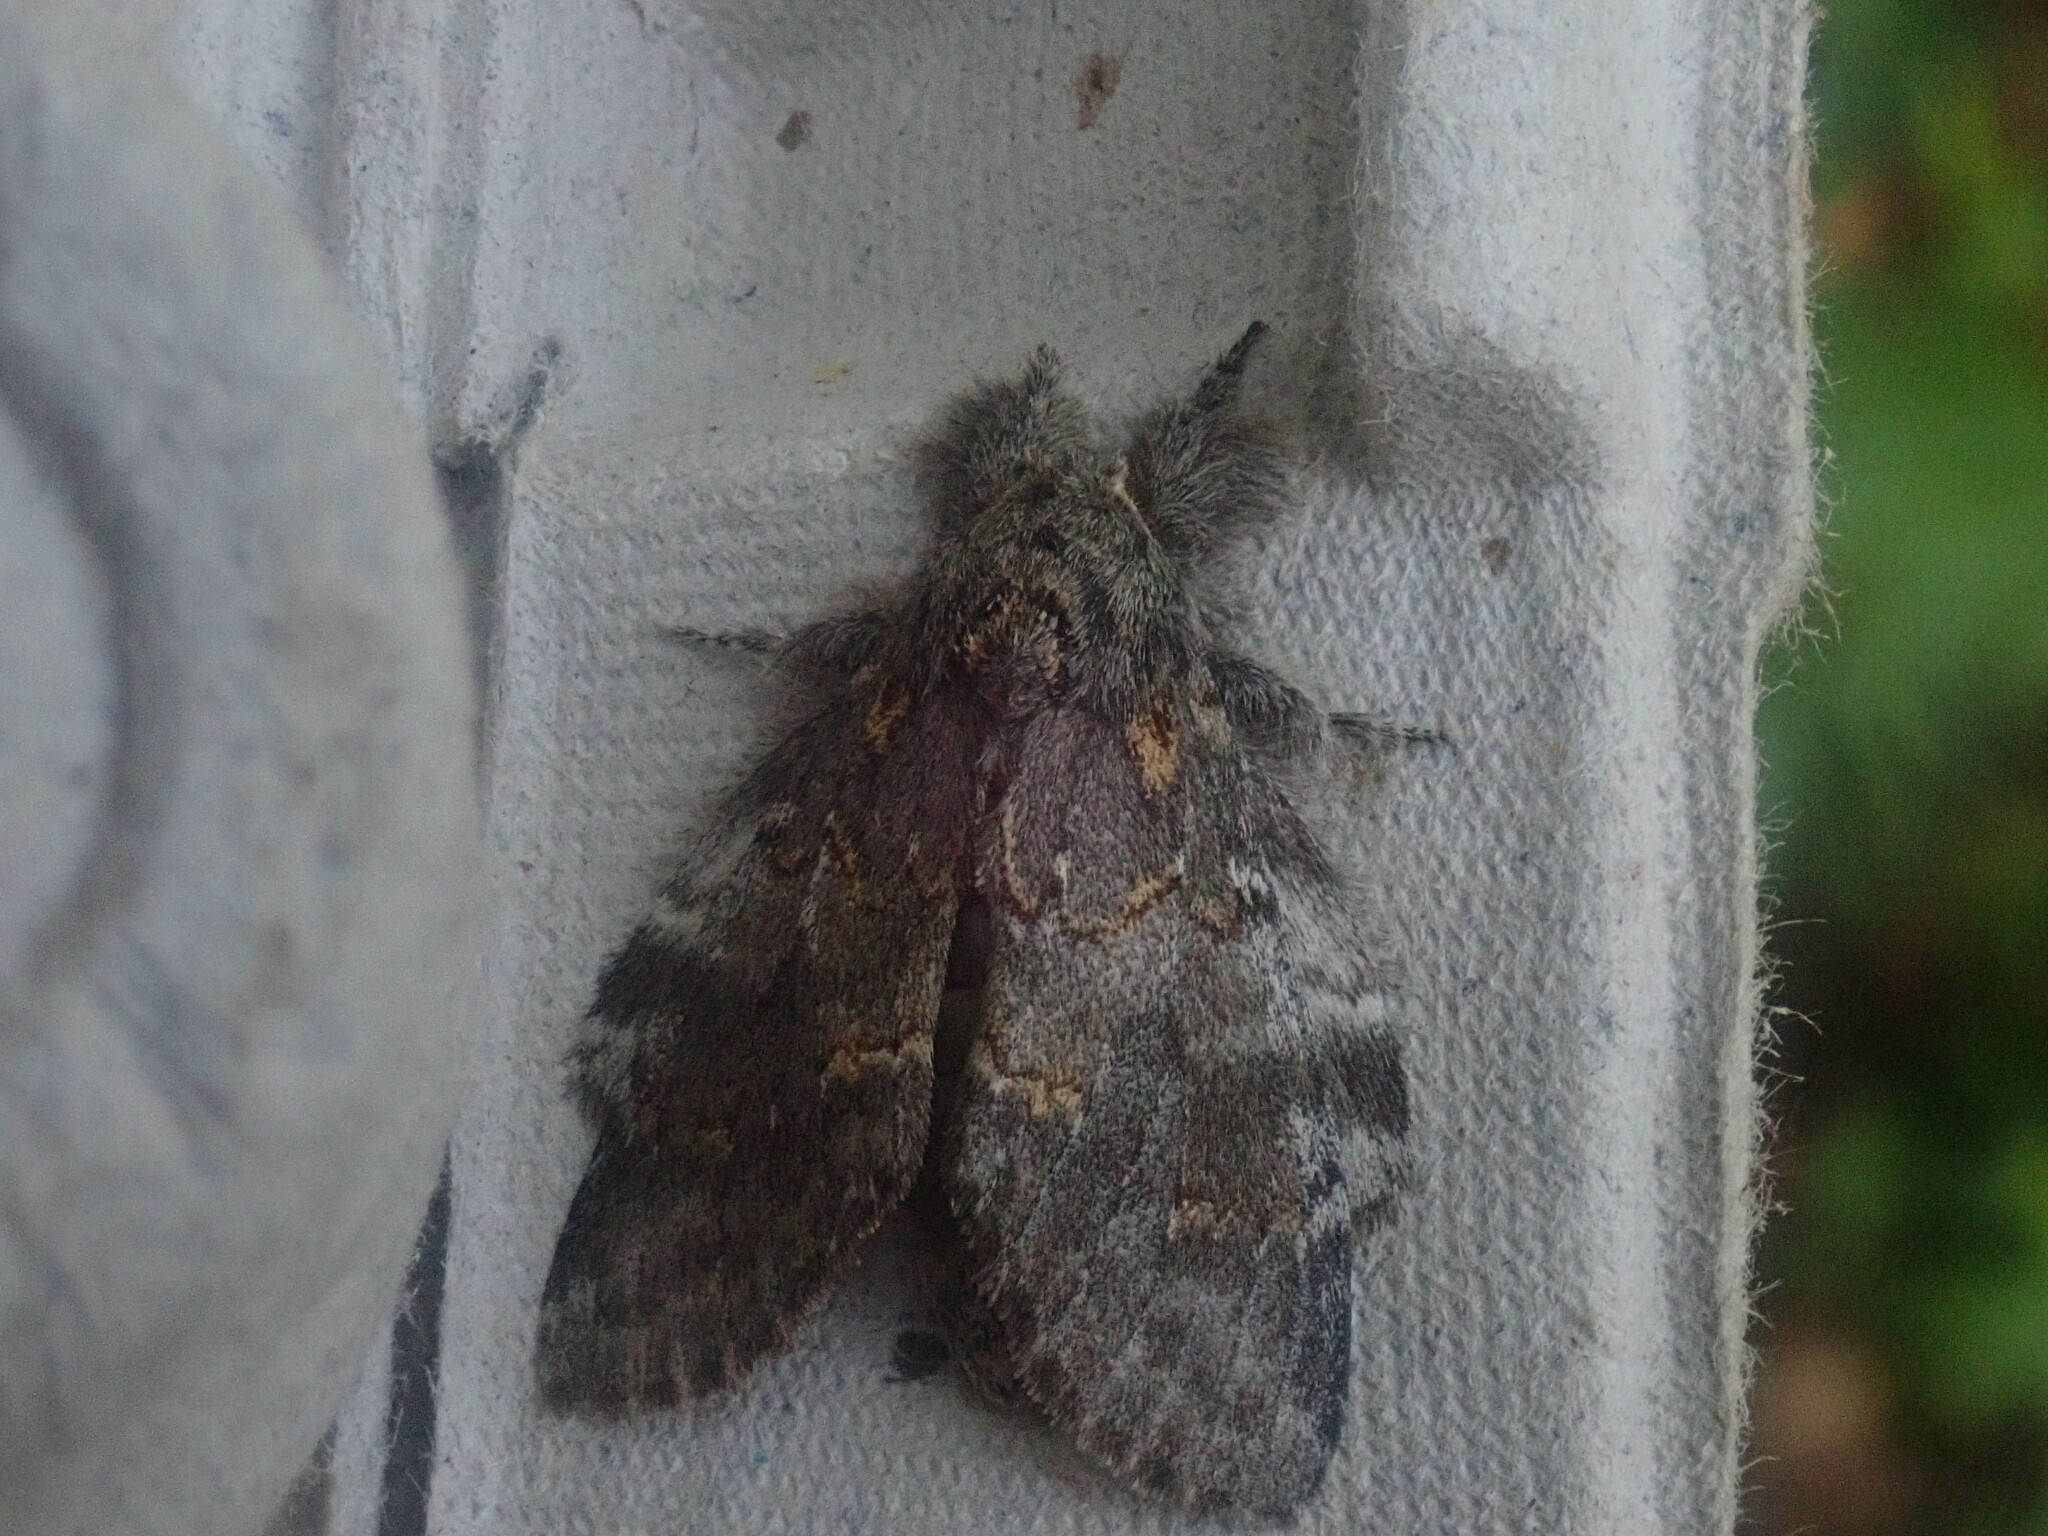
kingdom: Animalia
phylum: Arthropoda
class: Insecta
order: Lepidoptera
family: Notodontidae
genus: Peridea
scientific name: Peridea angulosa
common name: Angulose prominent
